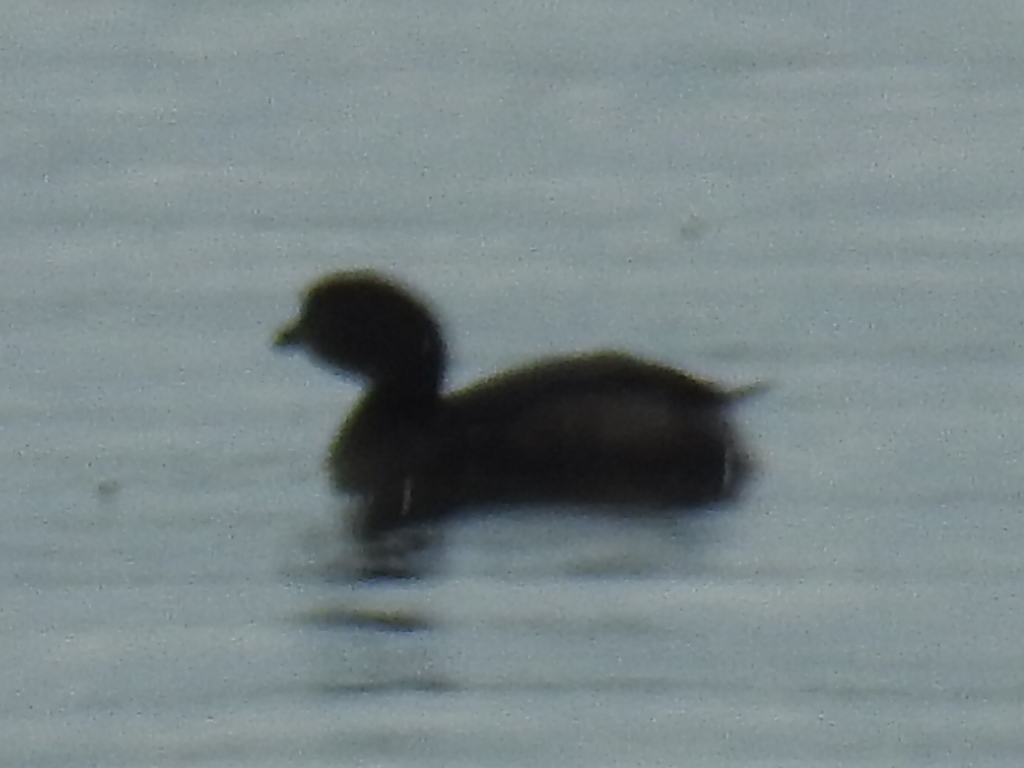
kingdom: Animalia
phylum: Chordata
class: Aves
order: Podicipediformes
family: Podicipedidae
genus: Podilymbus
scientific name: Podilymbus podiceps
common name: Pied-billed grebe
